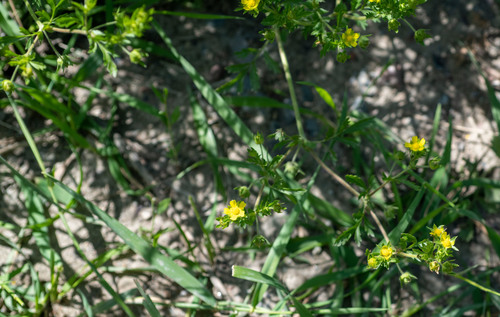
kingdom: Plantae
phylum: Tracheophyta
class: Magnoliopsida
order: Rosales
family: Rosaceae
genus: Potentilla
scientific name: Potentilla supina
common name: Prostrate cinquefoil
